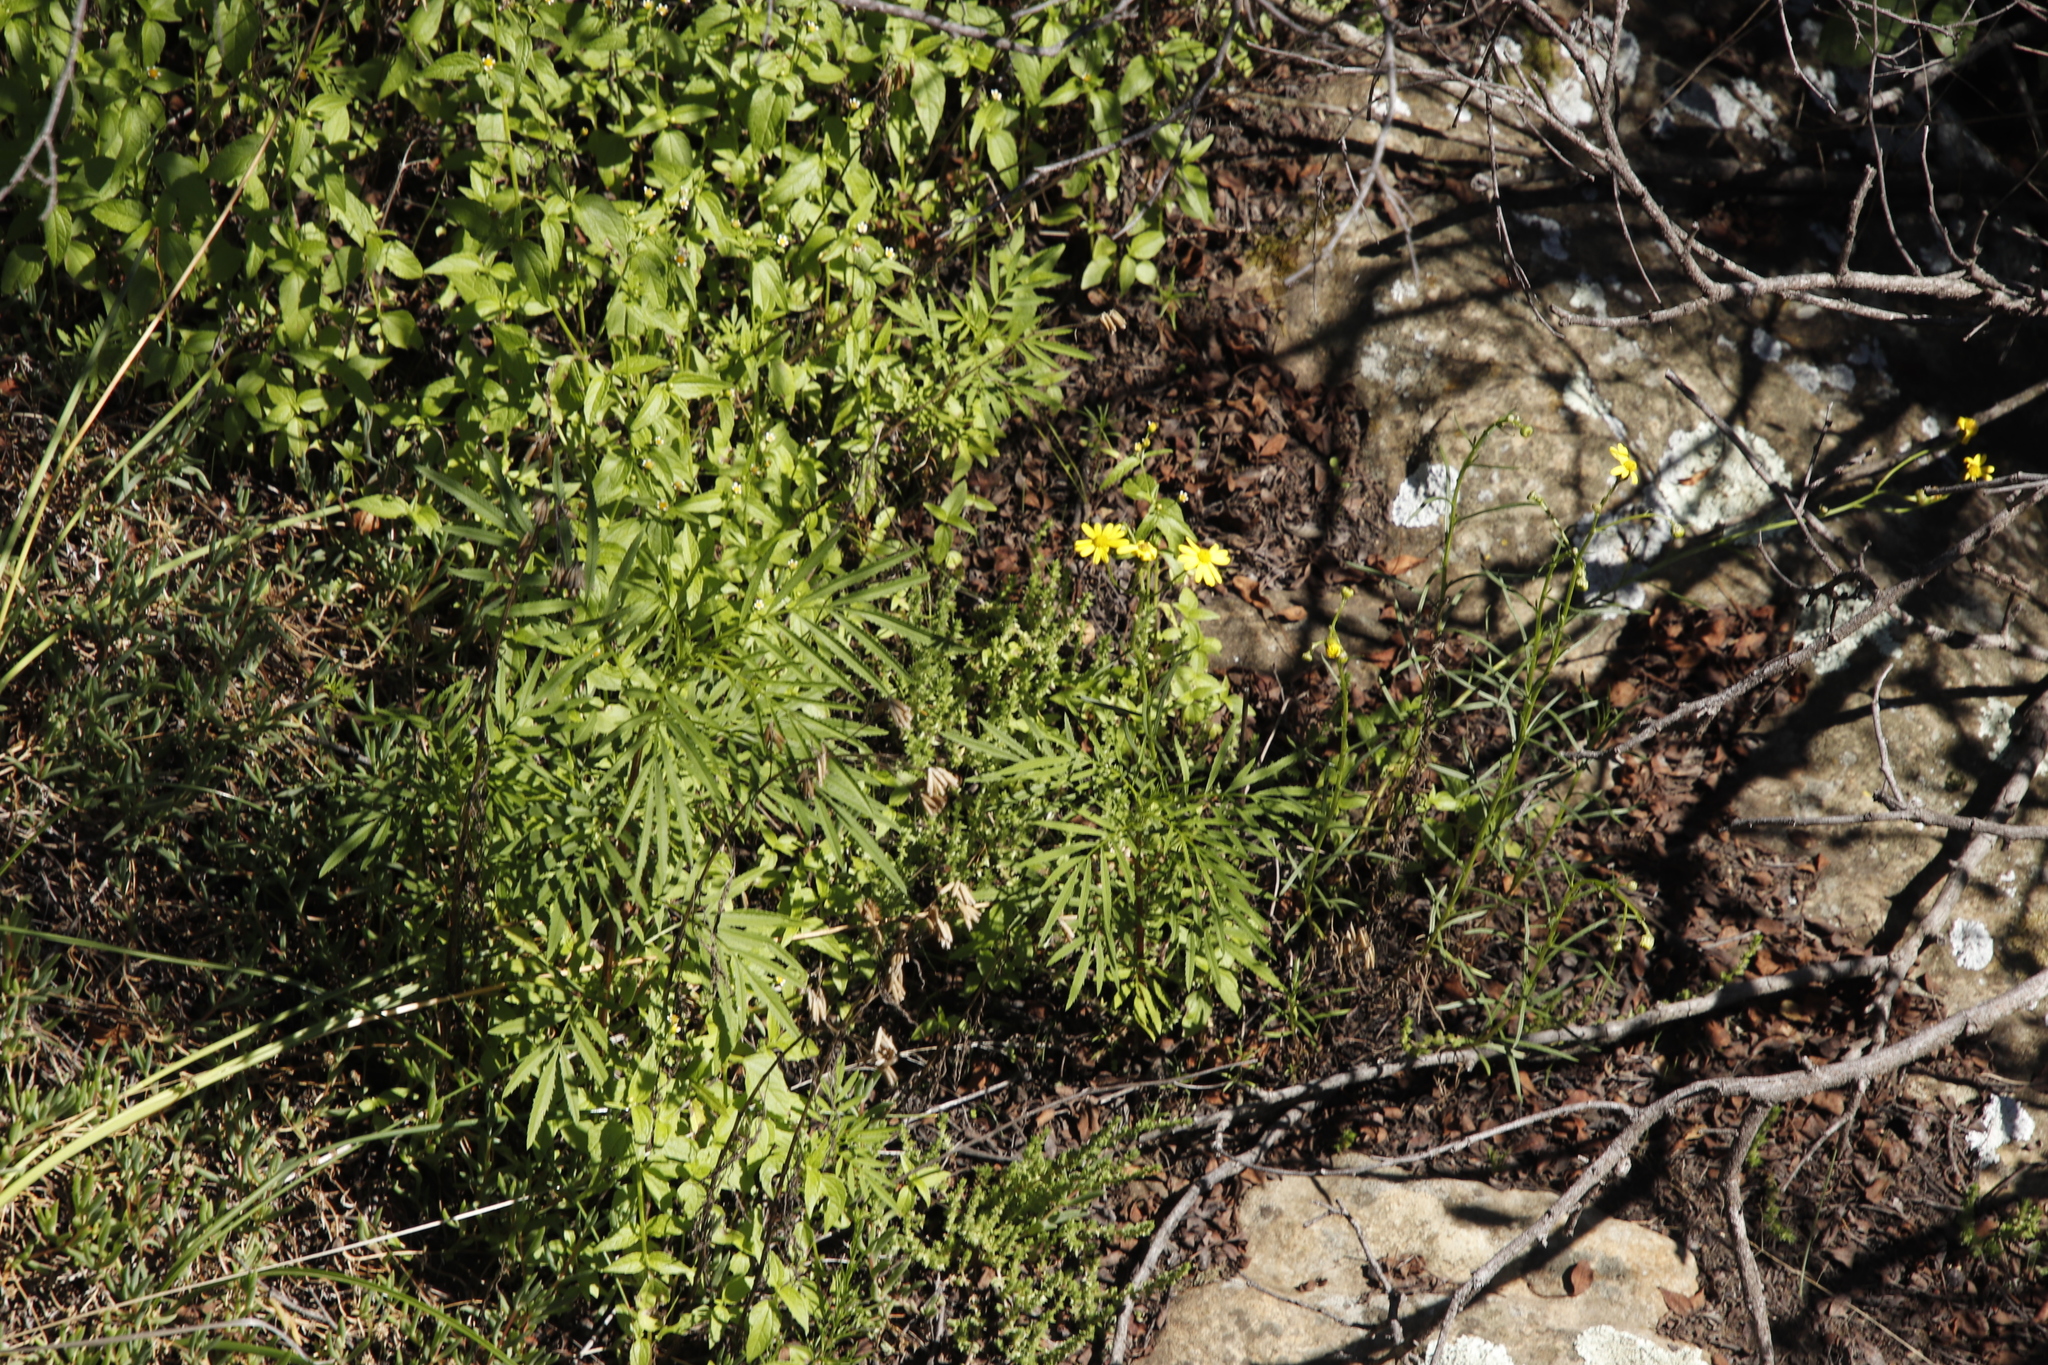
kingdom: Plantae
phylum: Tracheophyta
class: Magnoliopsida
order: Asterales
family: Asteraceae
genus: Tagetes
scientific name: Tagetes minuta
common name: Muster john henry
